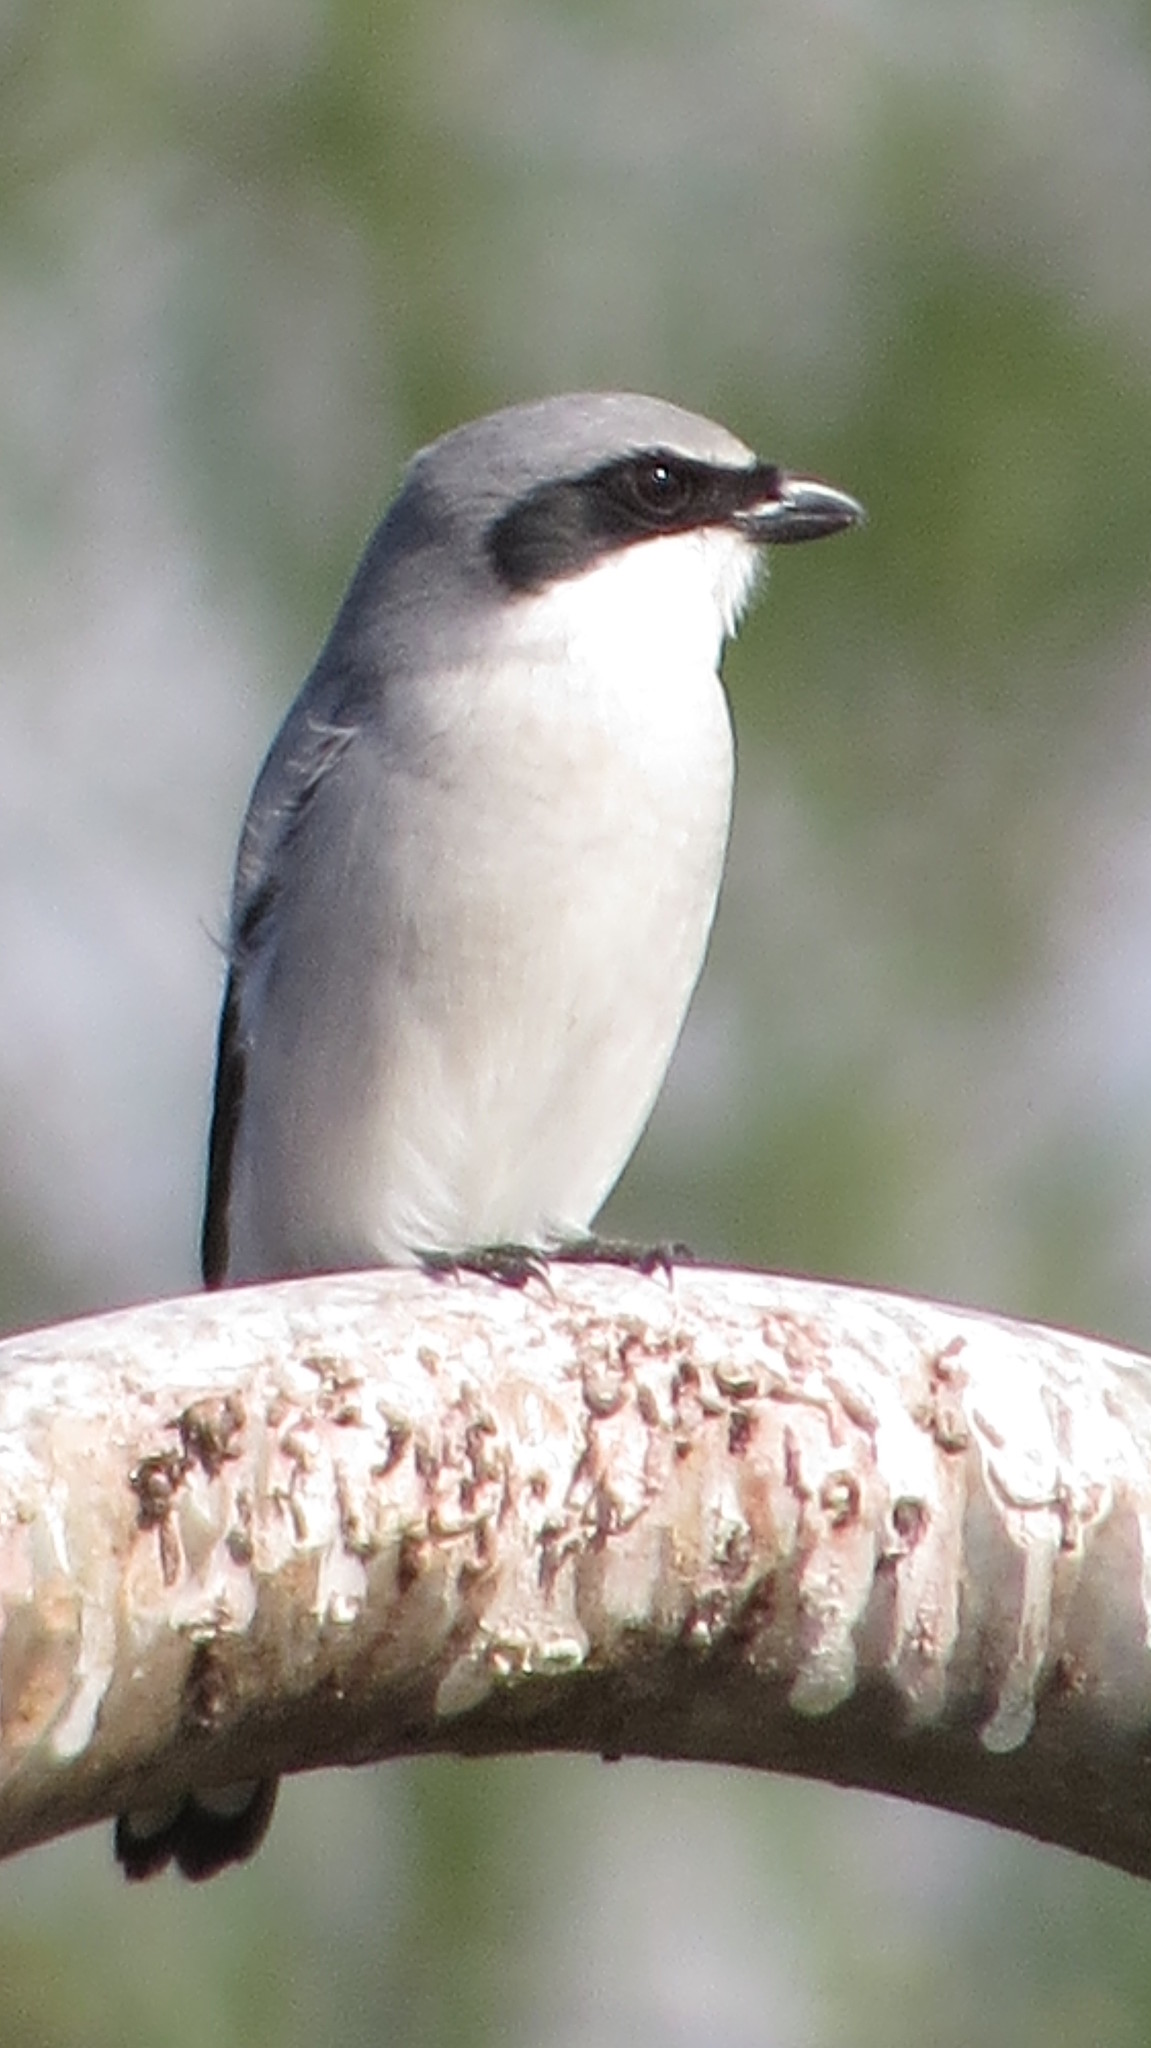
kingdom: Animalia
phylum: Chordata
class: Aves
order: Passeriformes
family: Laniidae
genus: Lanius
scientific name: Lanius ludovicianus
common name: Loggerhead shrike
